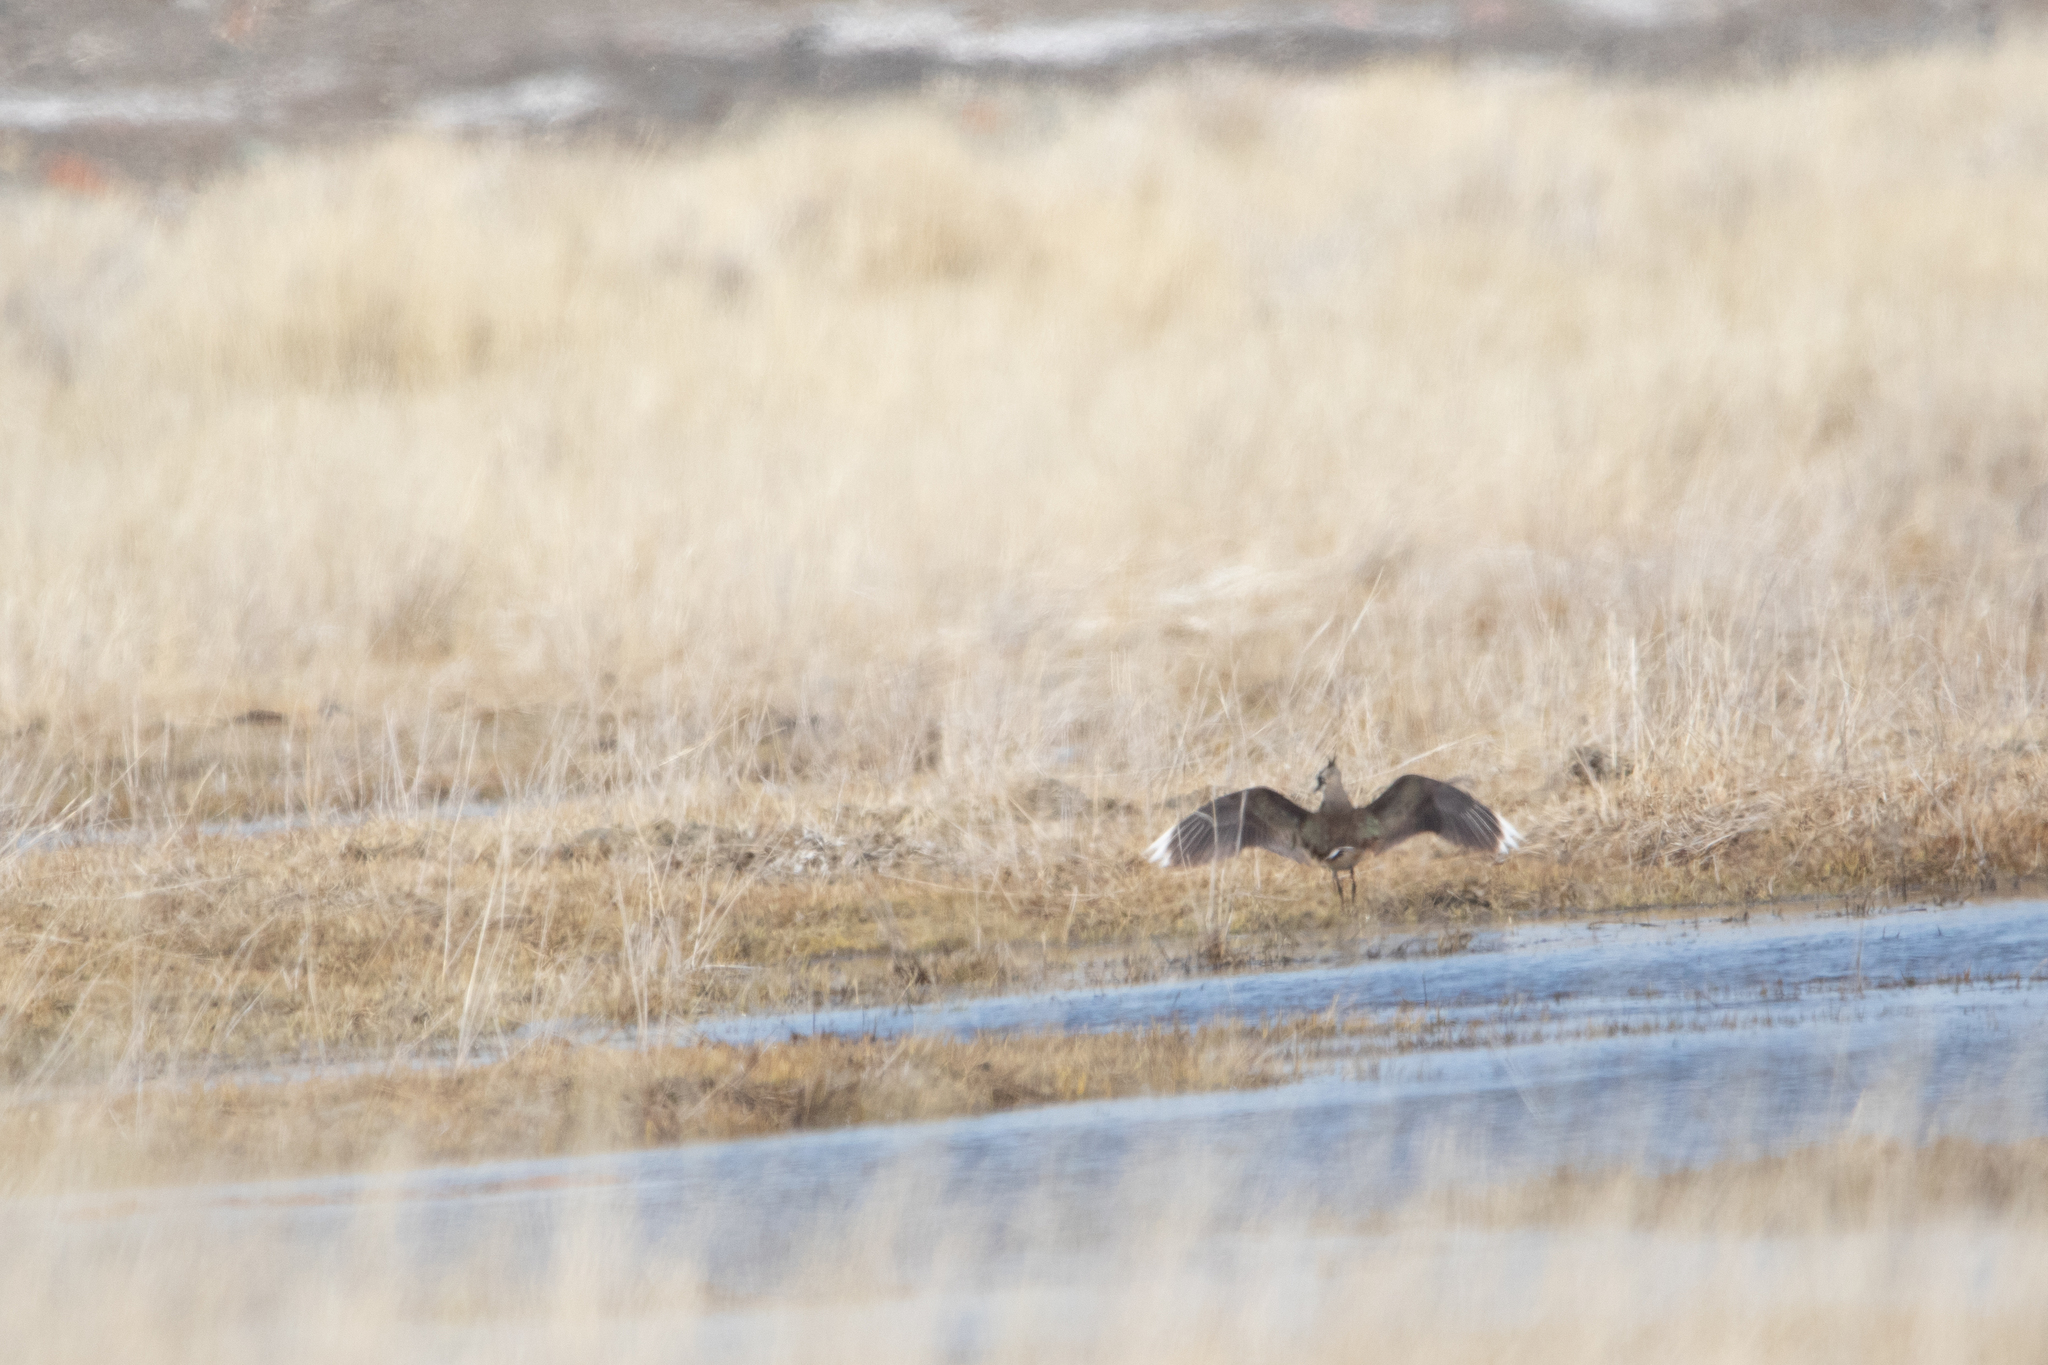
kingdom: Animalia
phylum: Chordata
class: Aves
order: Charadriiformes
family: Charadriidae
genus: Vanellus
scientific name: Vanellus vanellus
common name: Northern lapwing
